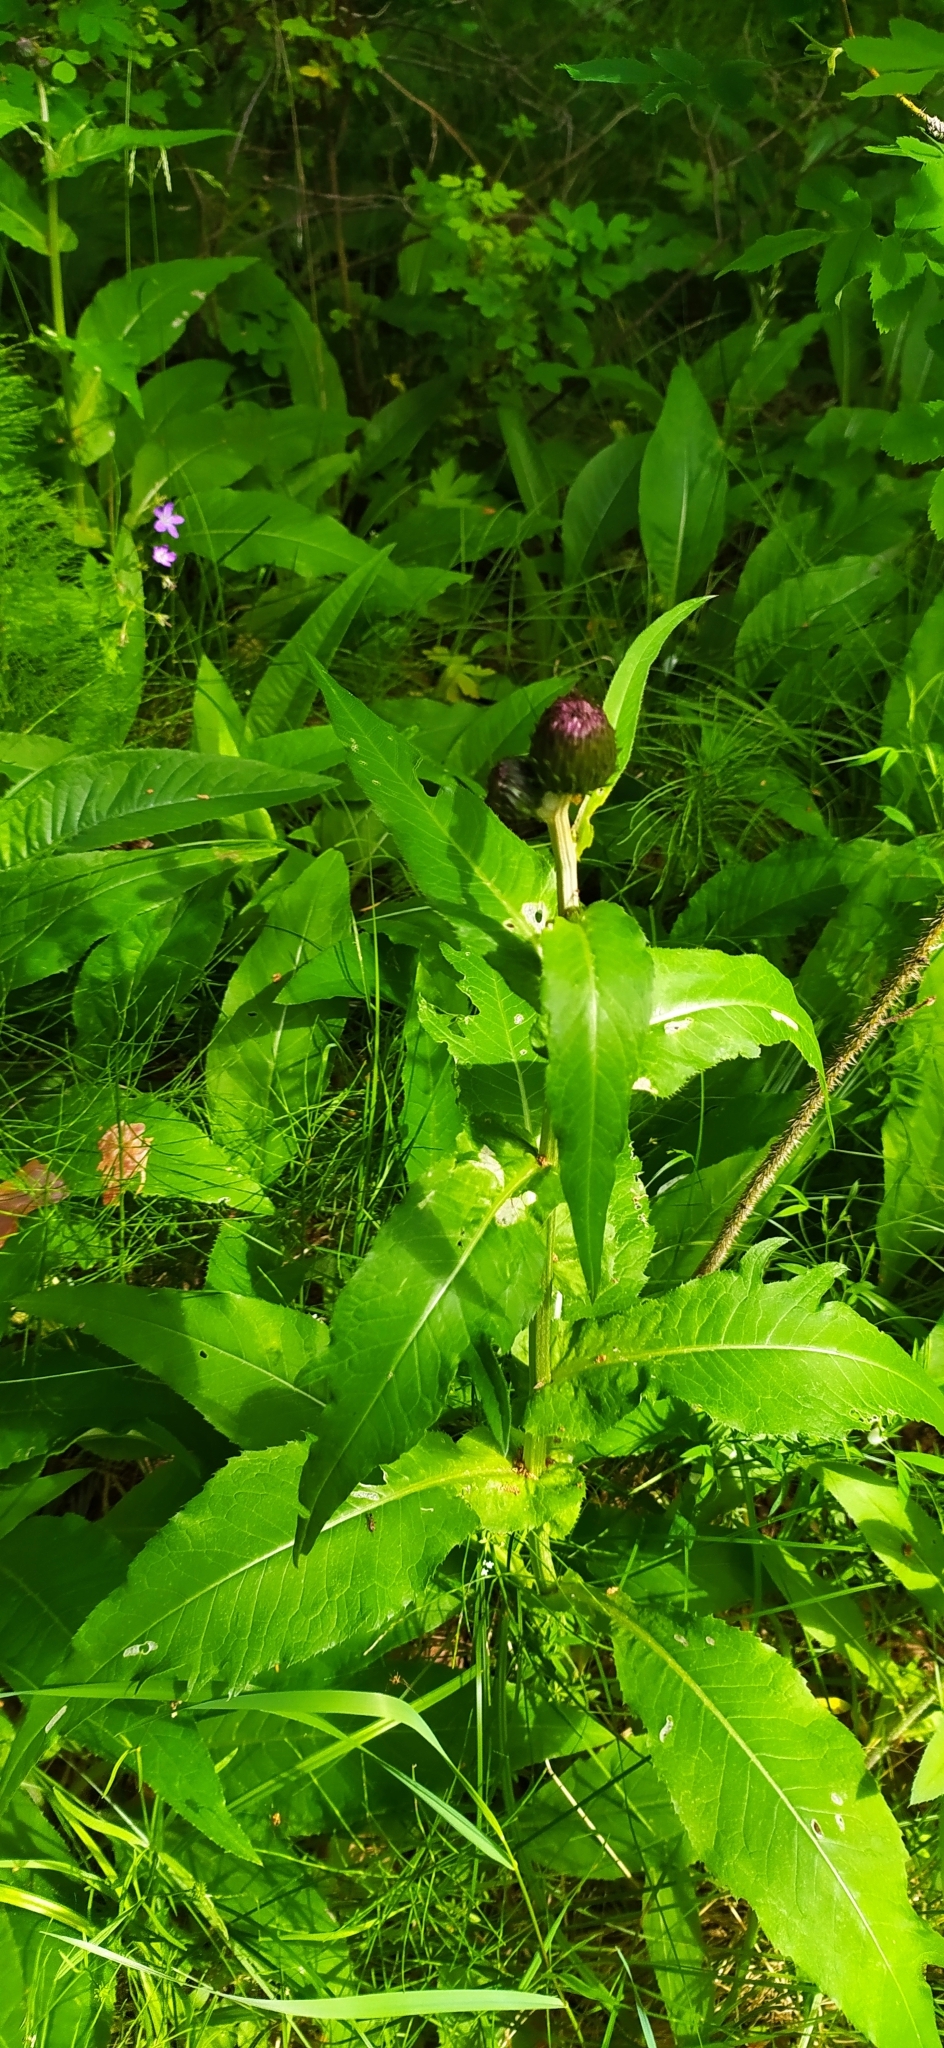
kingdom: Plantae
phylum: Tracheophyta
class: Magnoliopsida
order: Asterales
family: Asteraceae
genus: Cirsium
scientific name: Cirsium heterophyllum
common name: Melancholy thistle
